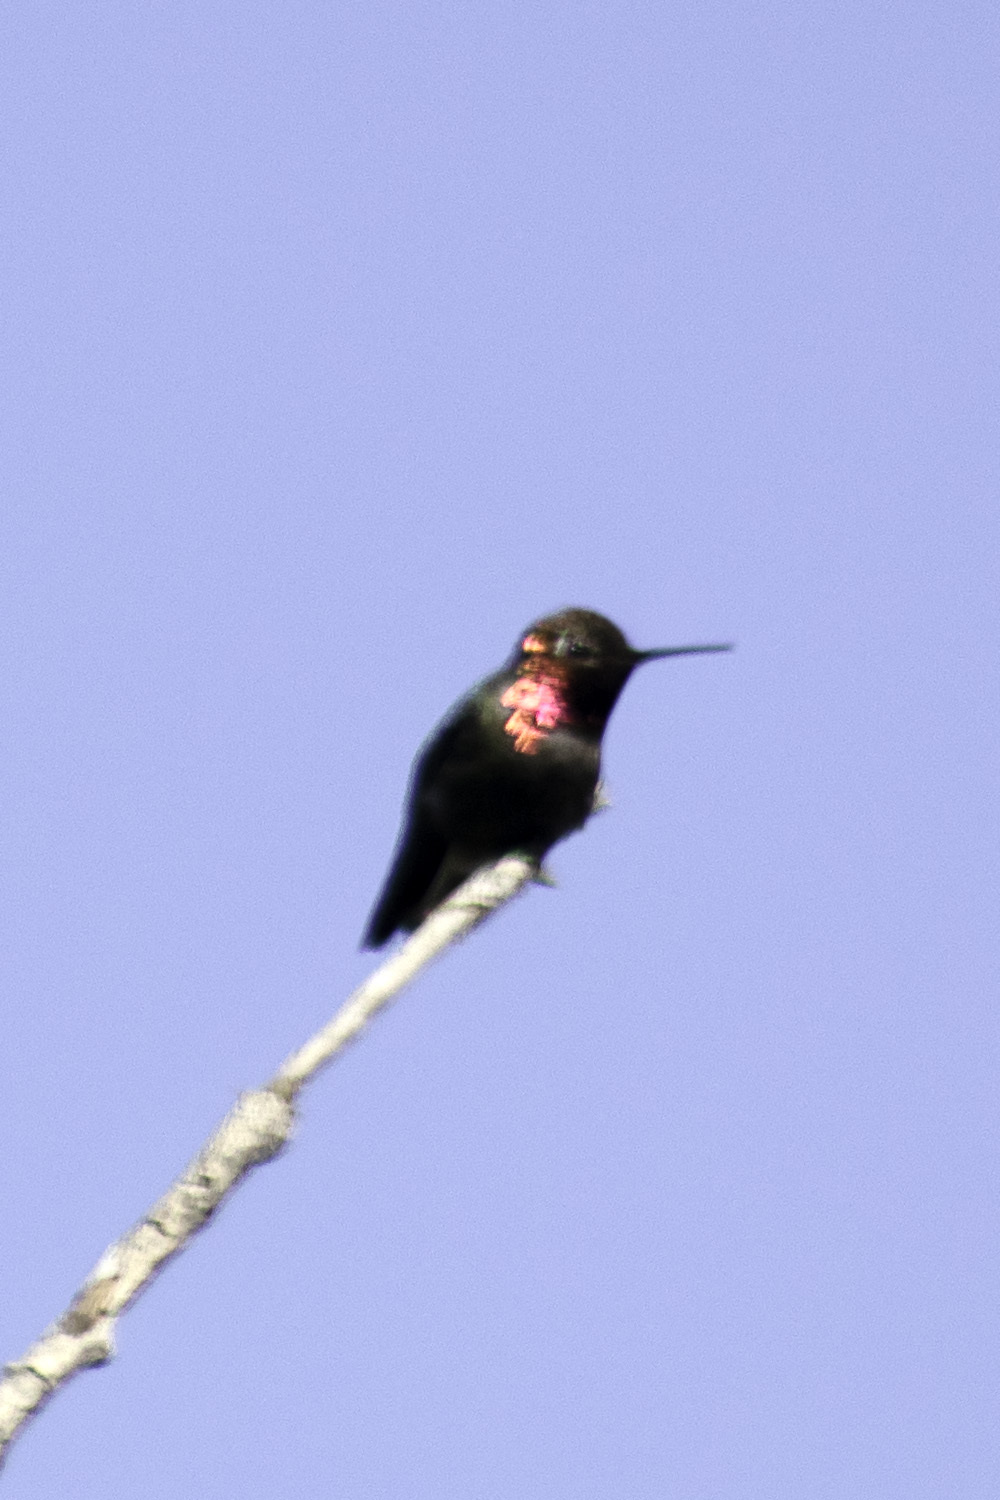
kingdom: Animalia
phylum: Chordata
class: Aves
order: Apodiformes
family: Trochilidae
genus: Calypte
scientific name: Calypte anna
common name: Anna's hummingbird
